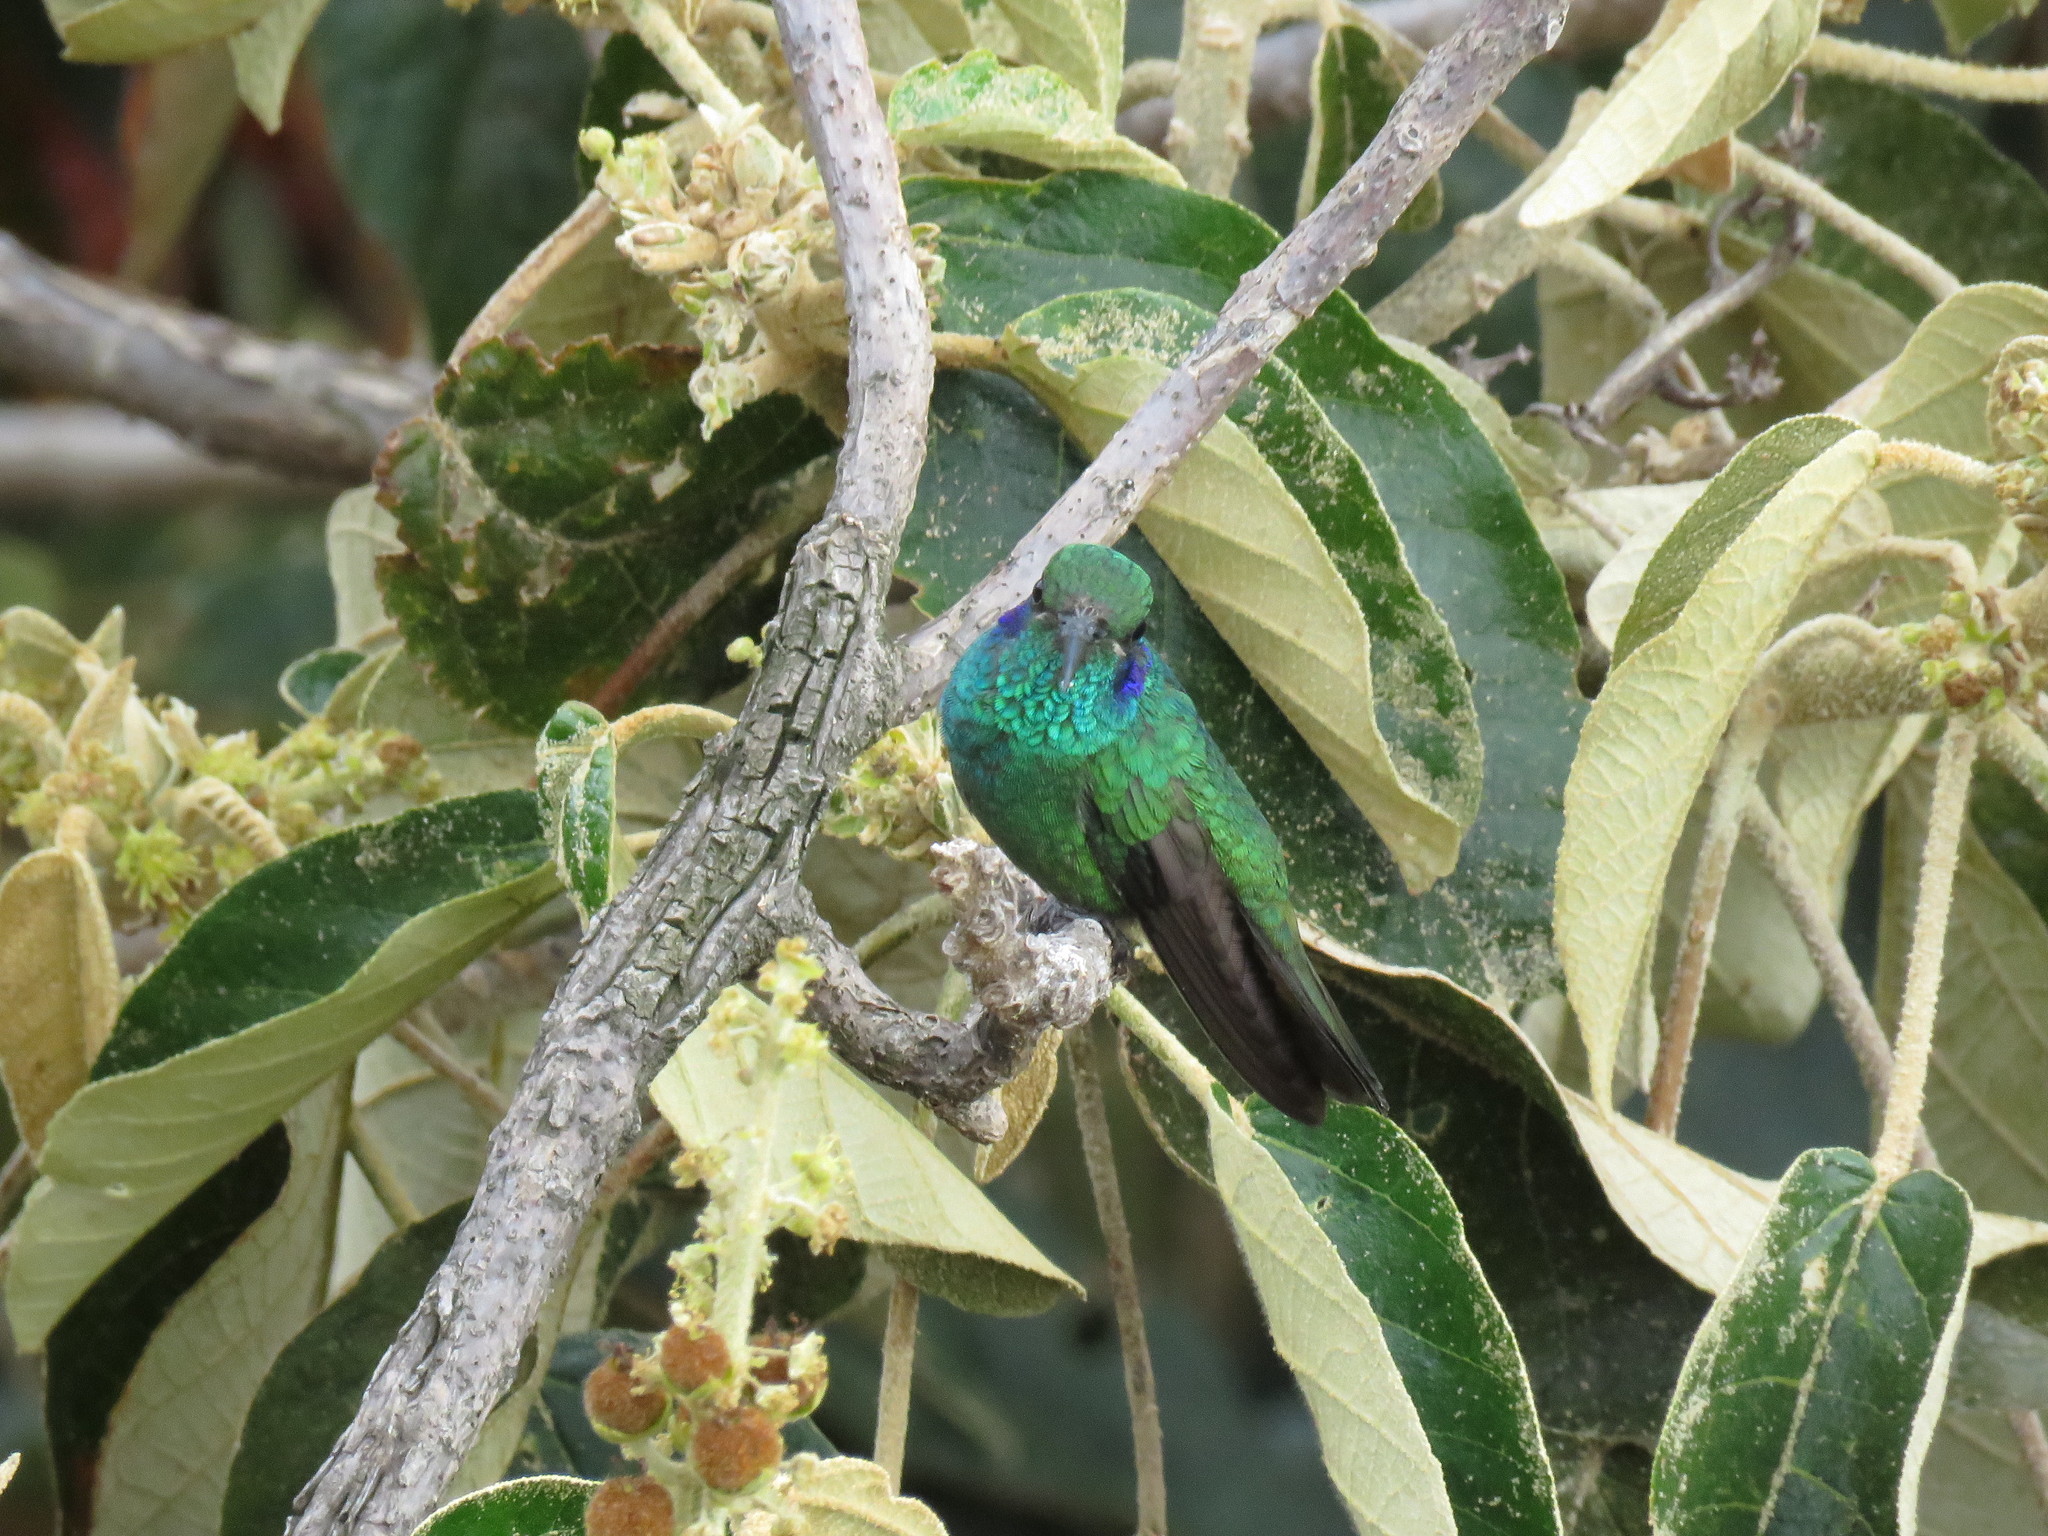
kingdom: Animalia
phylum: Chordata
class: Aves
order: Apodiformes
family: Trochilidae
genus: Colibri
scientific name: Colibri cyanotus
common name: Lesser violetear
